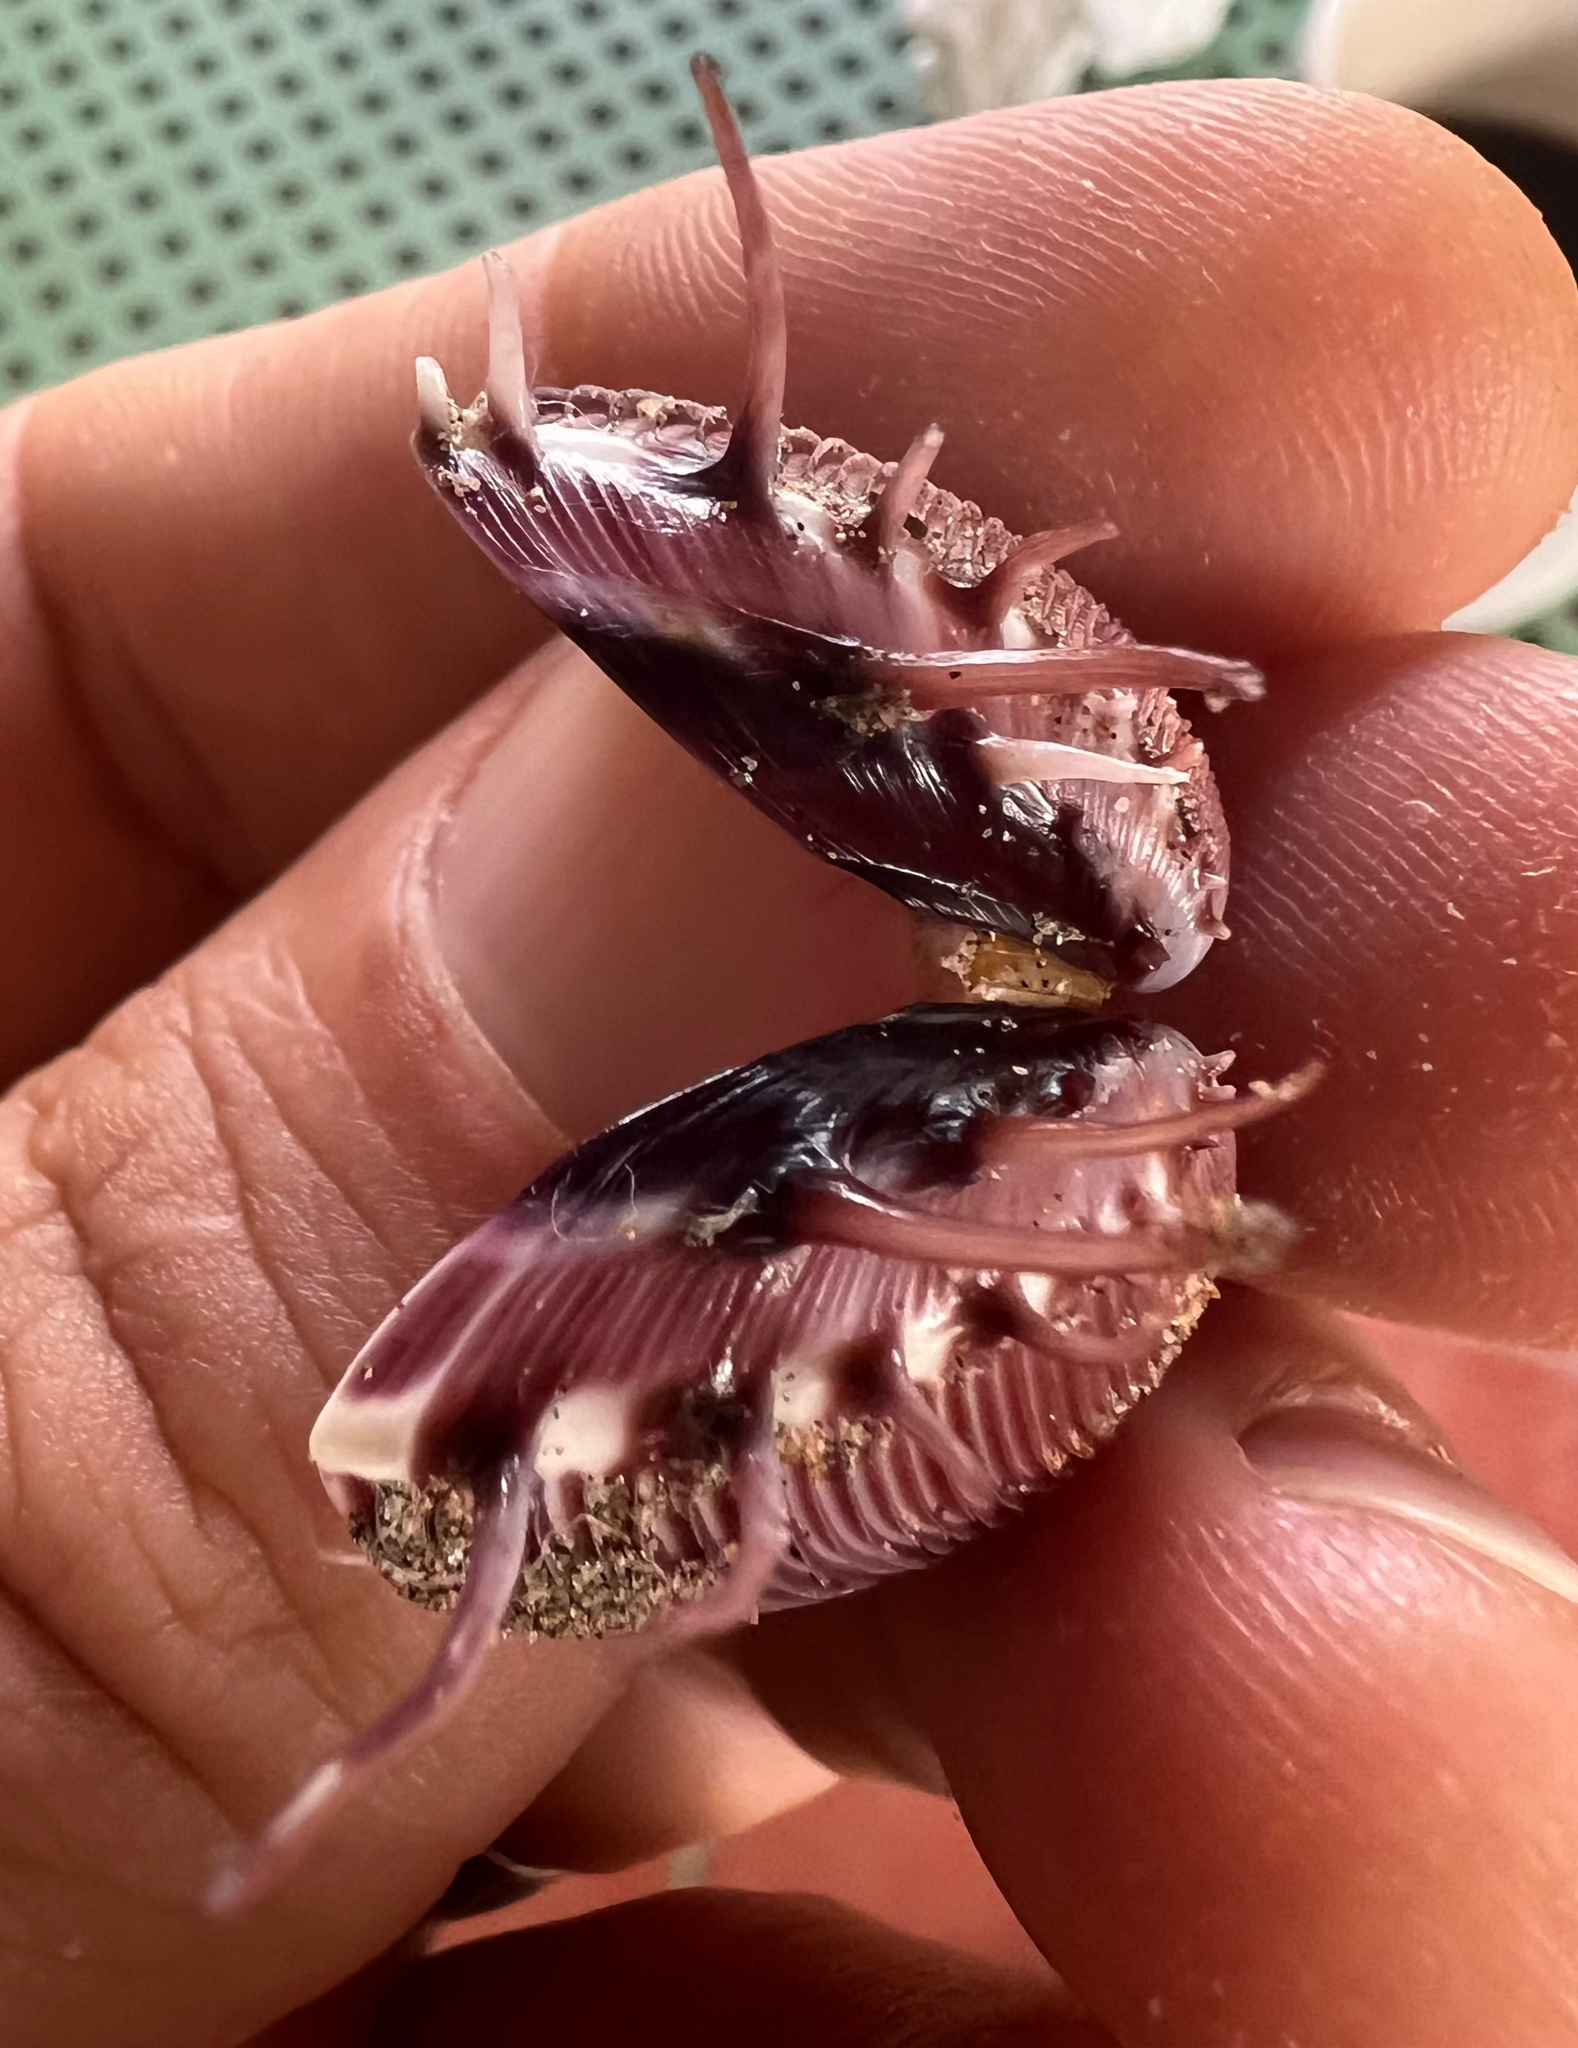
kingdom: Animalia
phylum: Mollusca
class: Bivalvia
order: Venerida
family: Veneridae
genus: Hysteroconcha
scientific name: Hysteroconcha lupanaria
